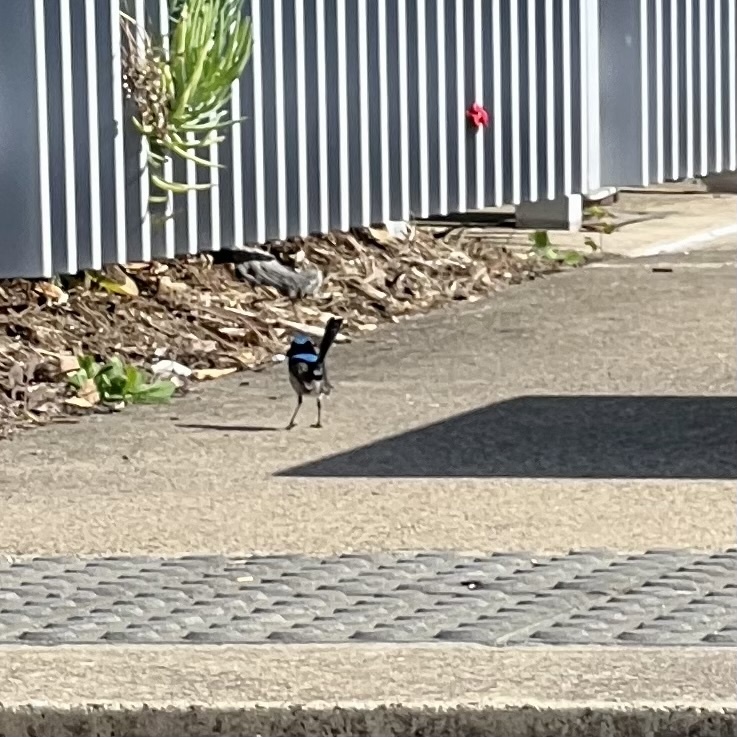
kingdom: Animalia
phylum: Chordata
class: Aves
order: Passeriformes
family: Maluridae
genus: Malurus
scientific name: Malurus cyaneus
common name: Superb fairywren
